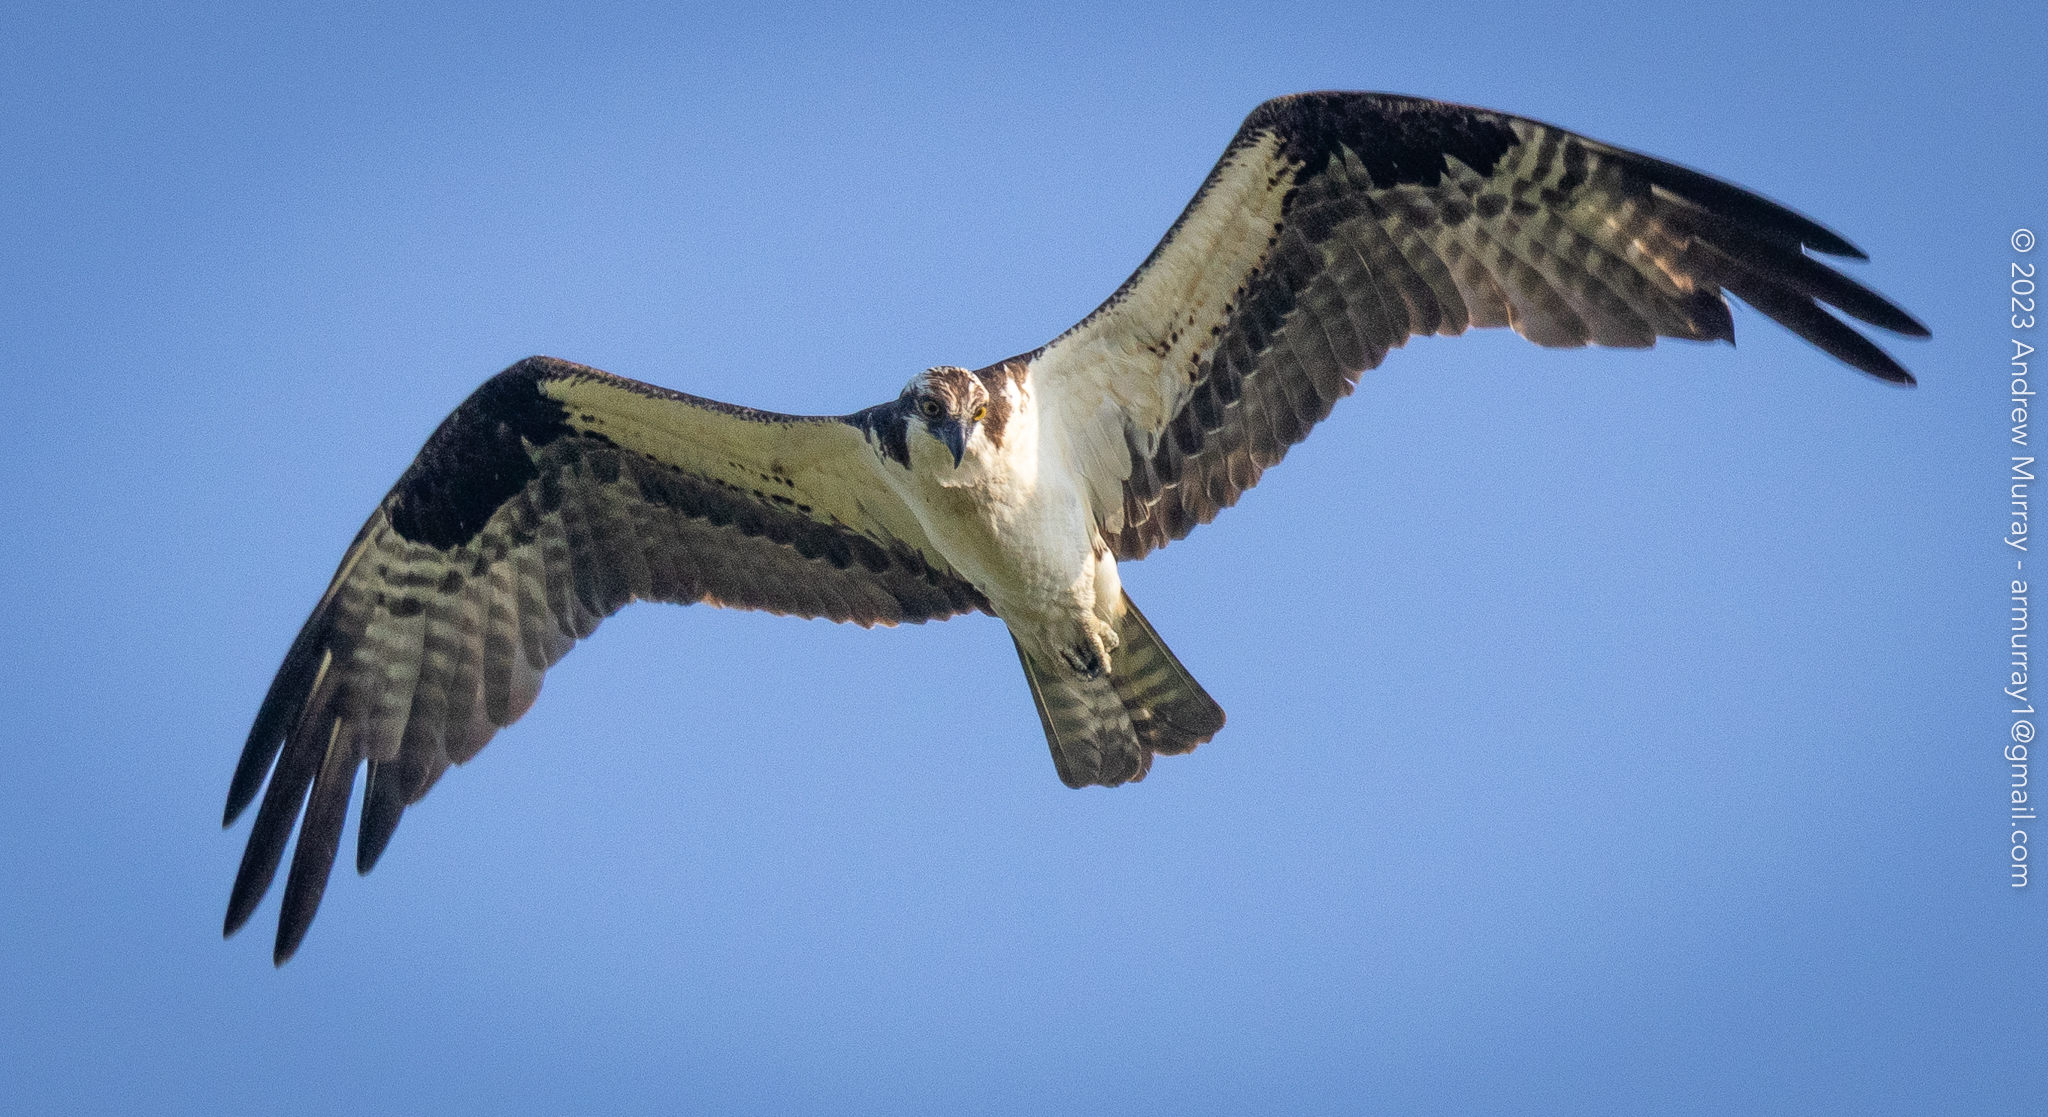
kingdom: Animalia
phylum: Chordata
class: Aves
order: Accipitriformes
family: Pandionidae
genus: Pandion
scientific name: Pandion haliaetus
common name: Osprey
